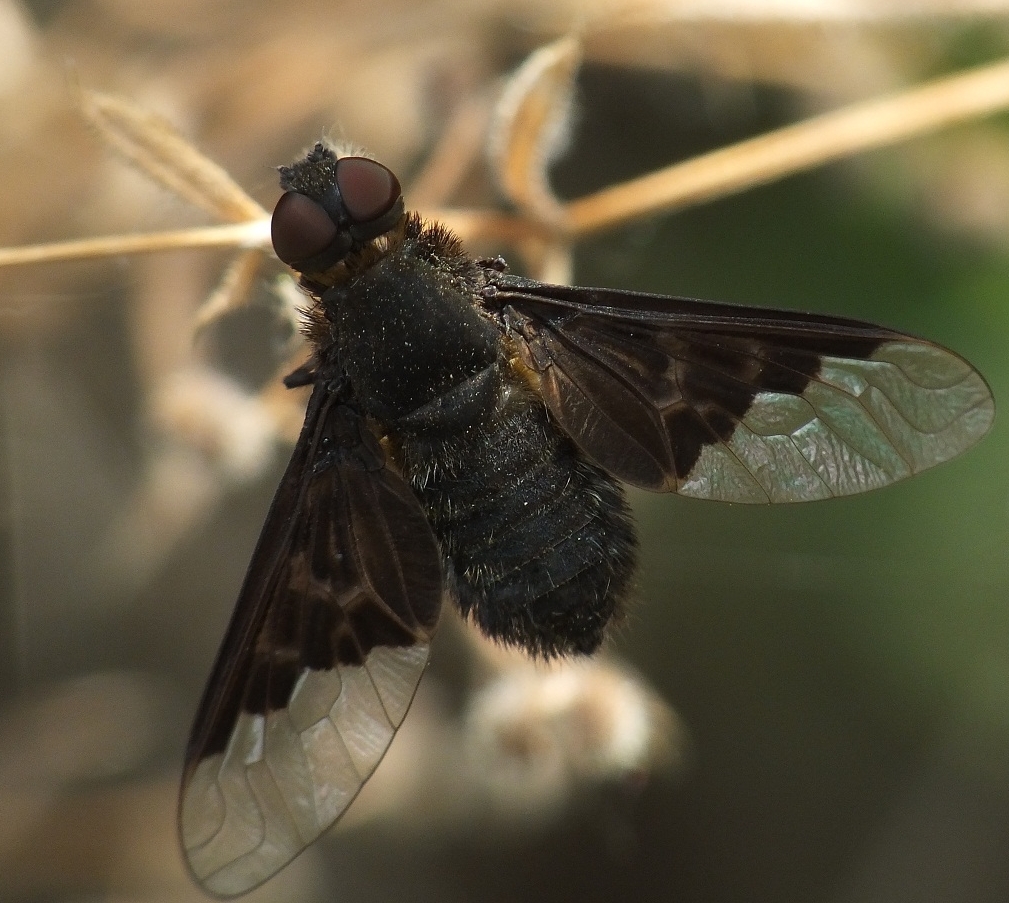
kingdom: Animalia
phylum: Arthropoda
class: Insecta
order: Diptera
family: Bombyliidae
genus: Hemipenthes
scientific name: Hemipenthes morio
